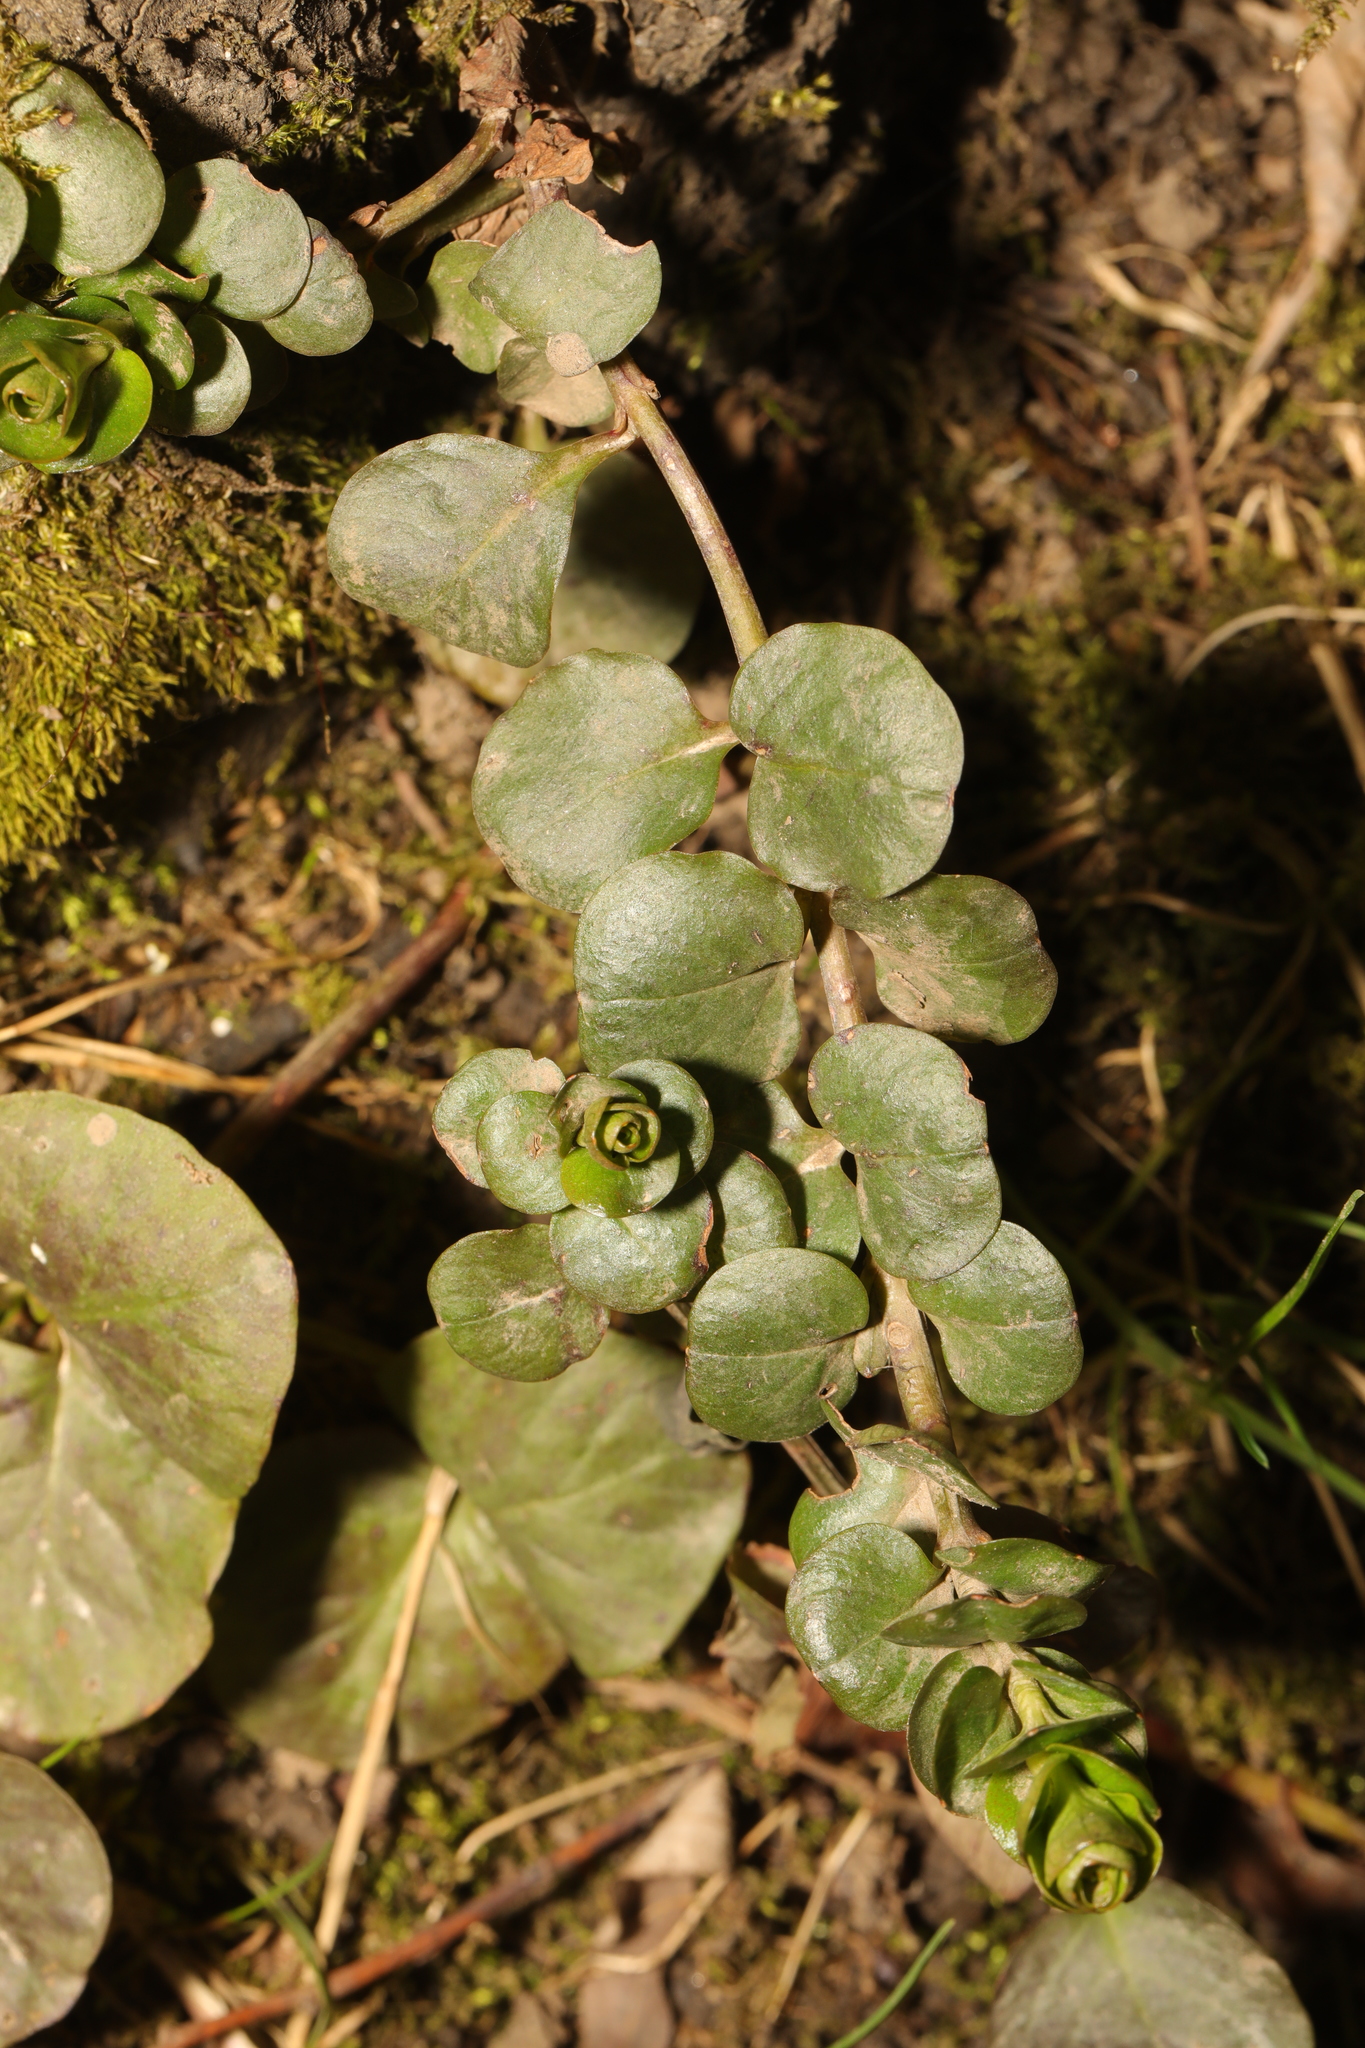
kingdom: Plantae
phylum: Tracheophyta
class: Magnoliopsida
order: Ericales
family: Primulaceae
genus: Lysimachia
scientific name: Lysimachia nummularia
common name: Moneywort
